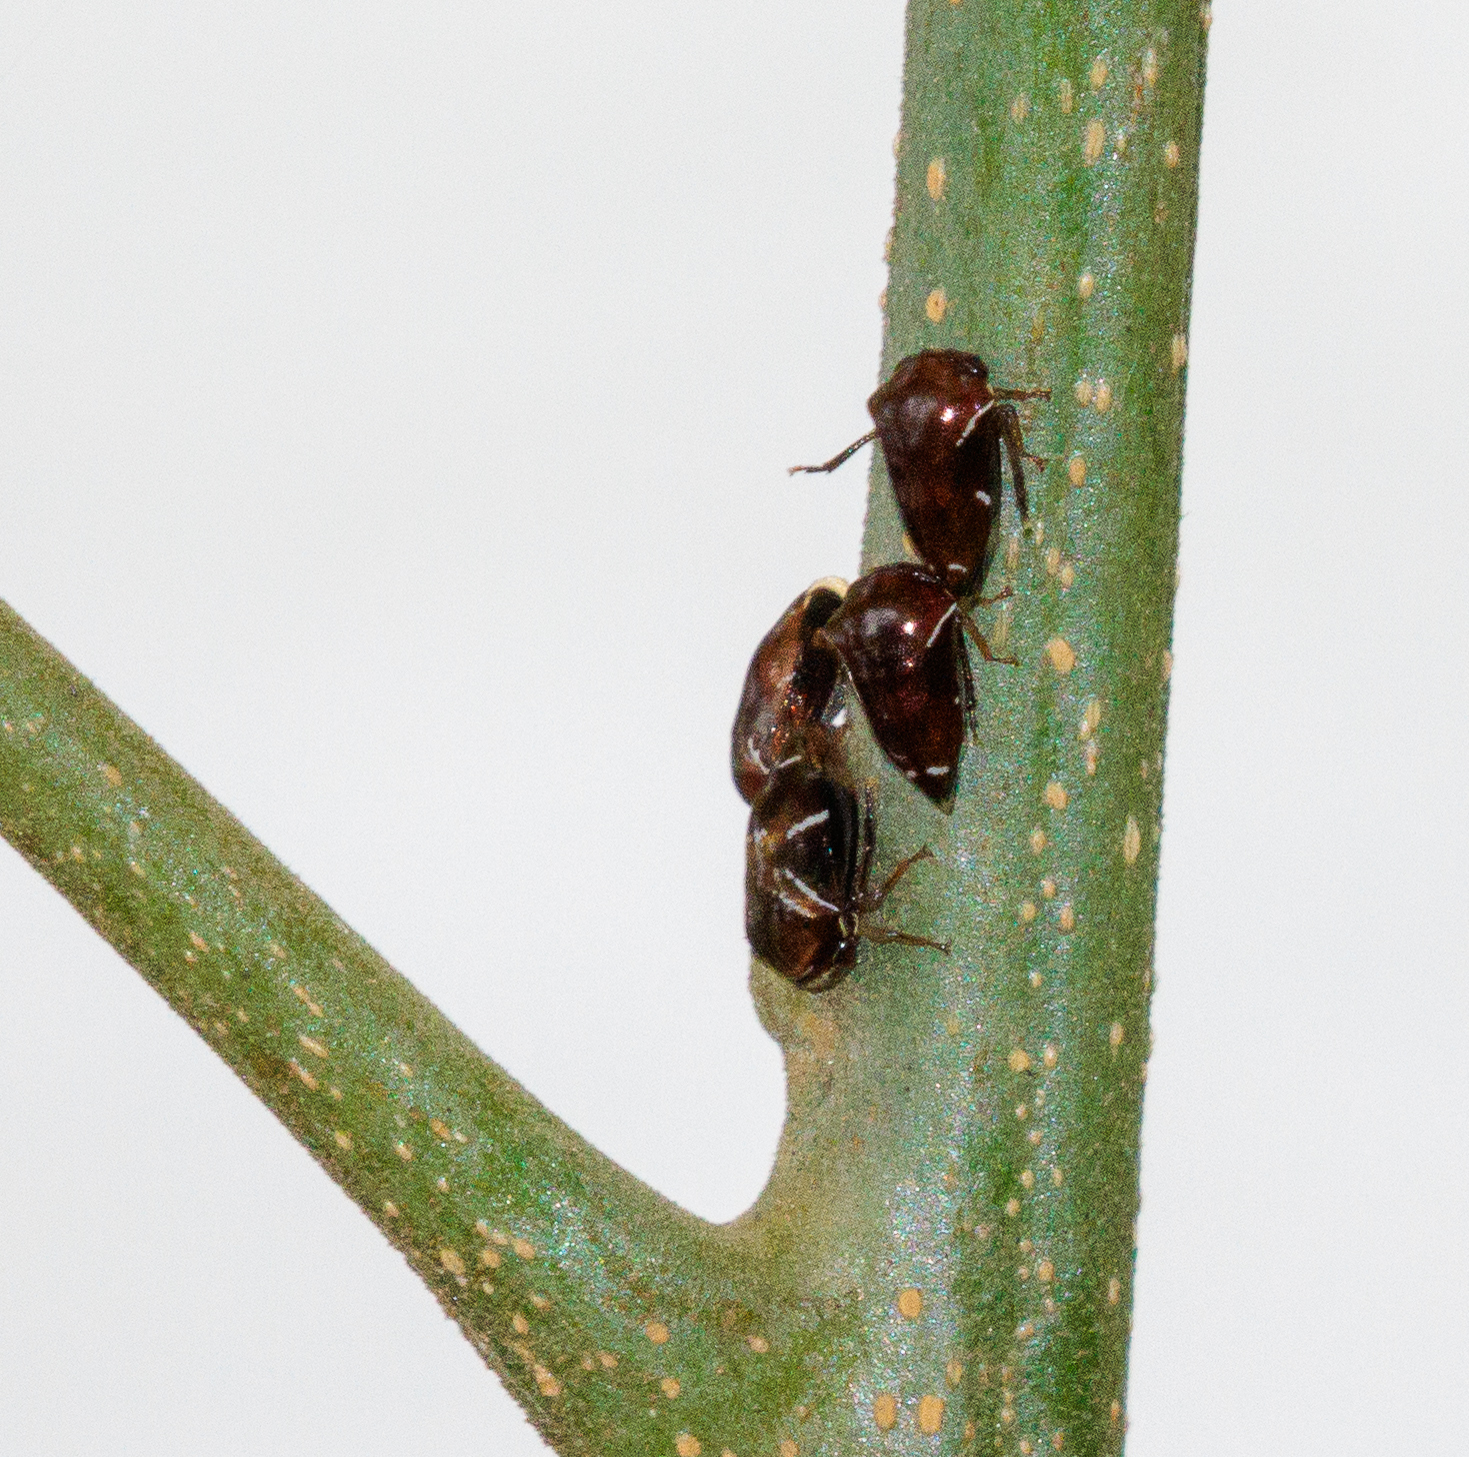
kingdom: Animalia
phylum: Arthropoda
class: Insecta
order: Hemiptera
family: Membracidae
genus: Horiola
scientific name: Horiola picta
